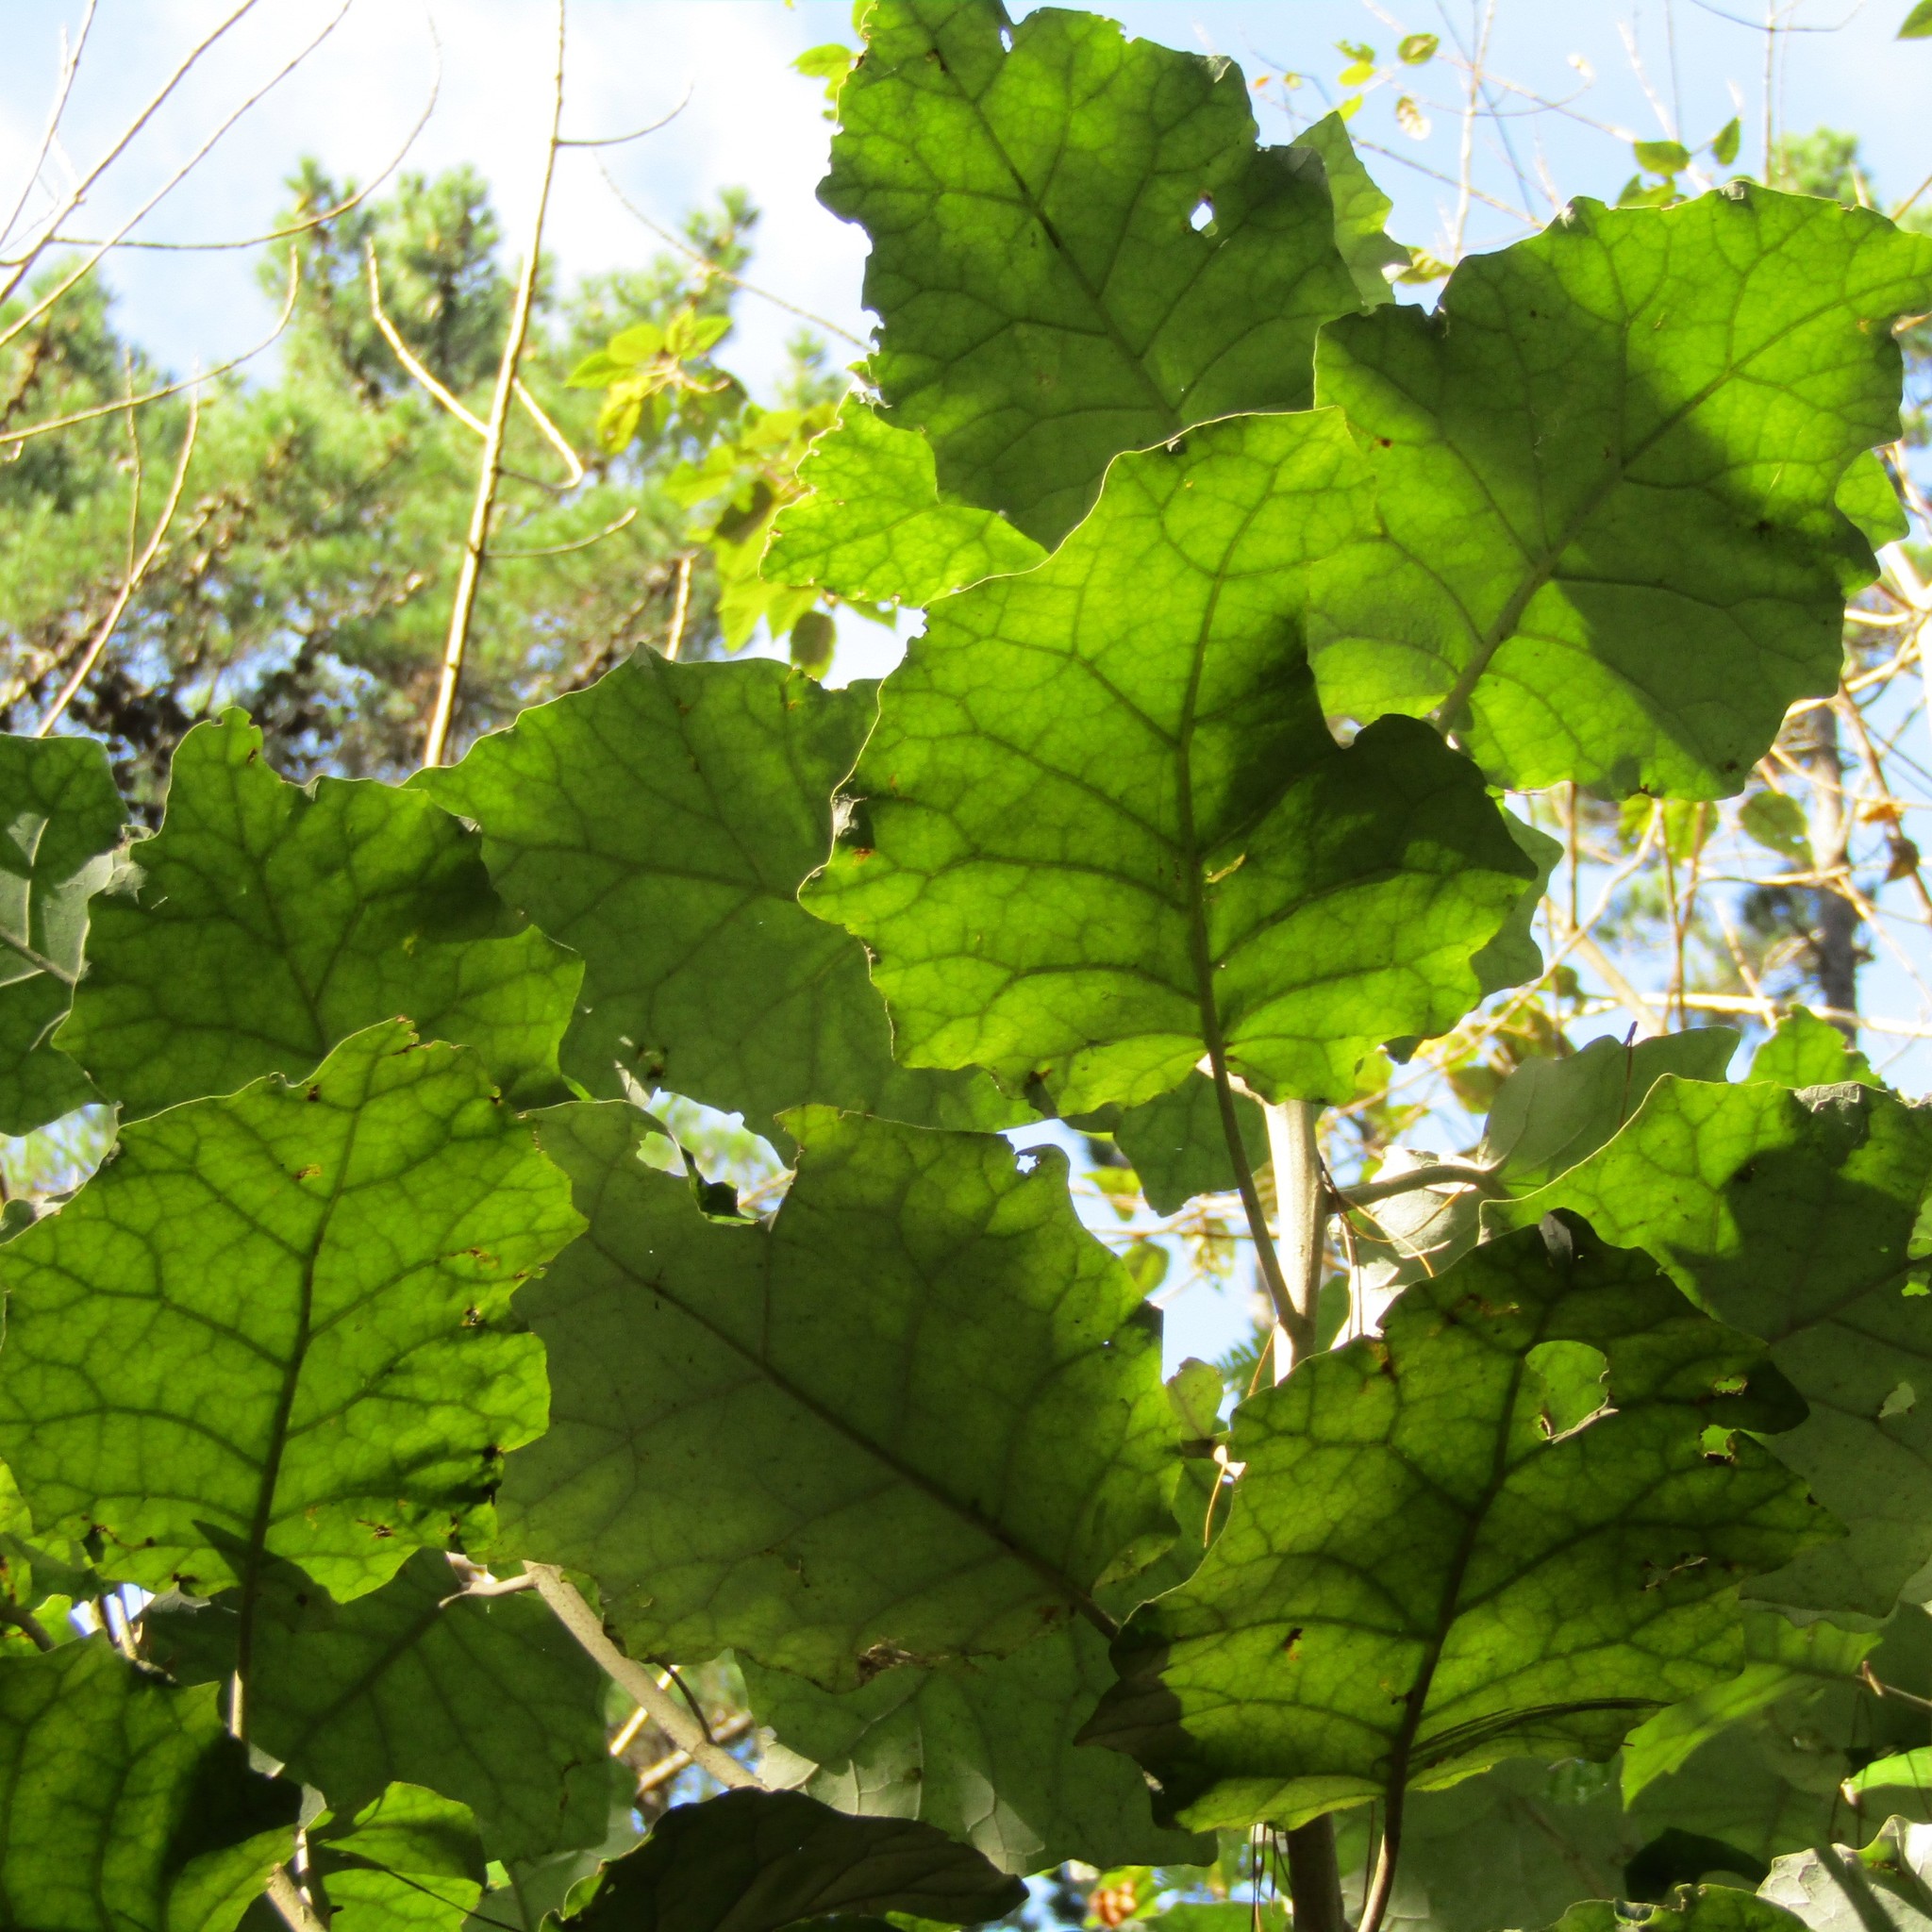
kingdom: Plantae
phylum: Tracheophyta
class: Magnoliopsida
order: Asterales
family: Asteraceae
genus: Brachyglottis
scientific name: Brachyglottis repanda
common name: Hedge ragwort
